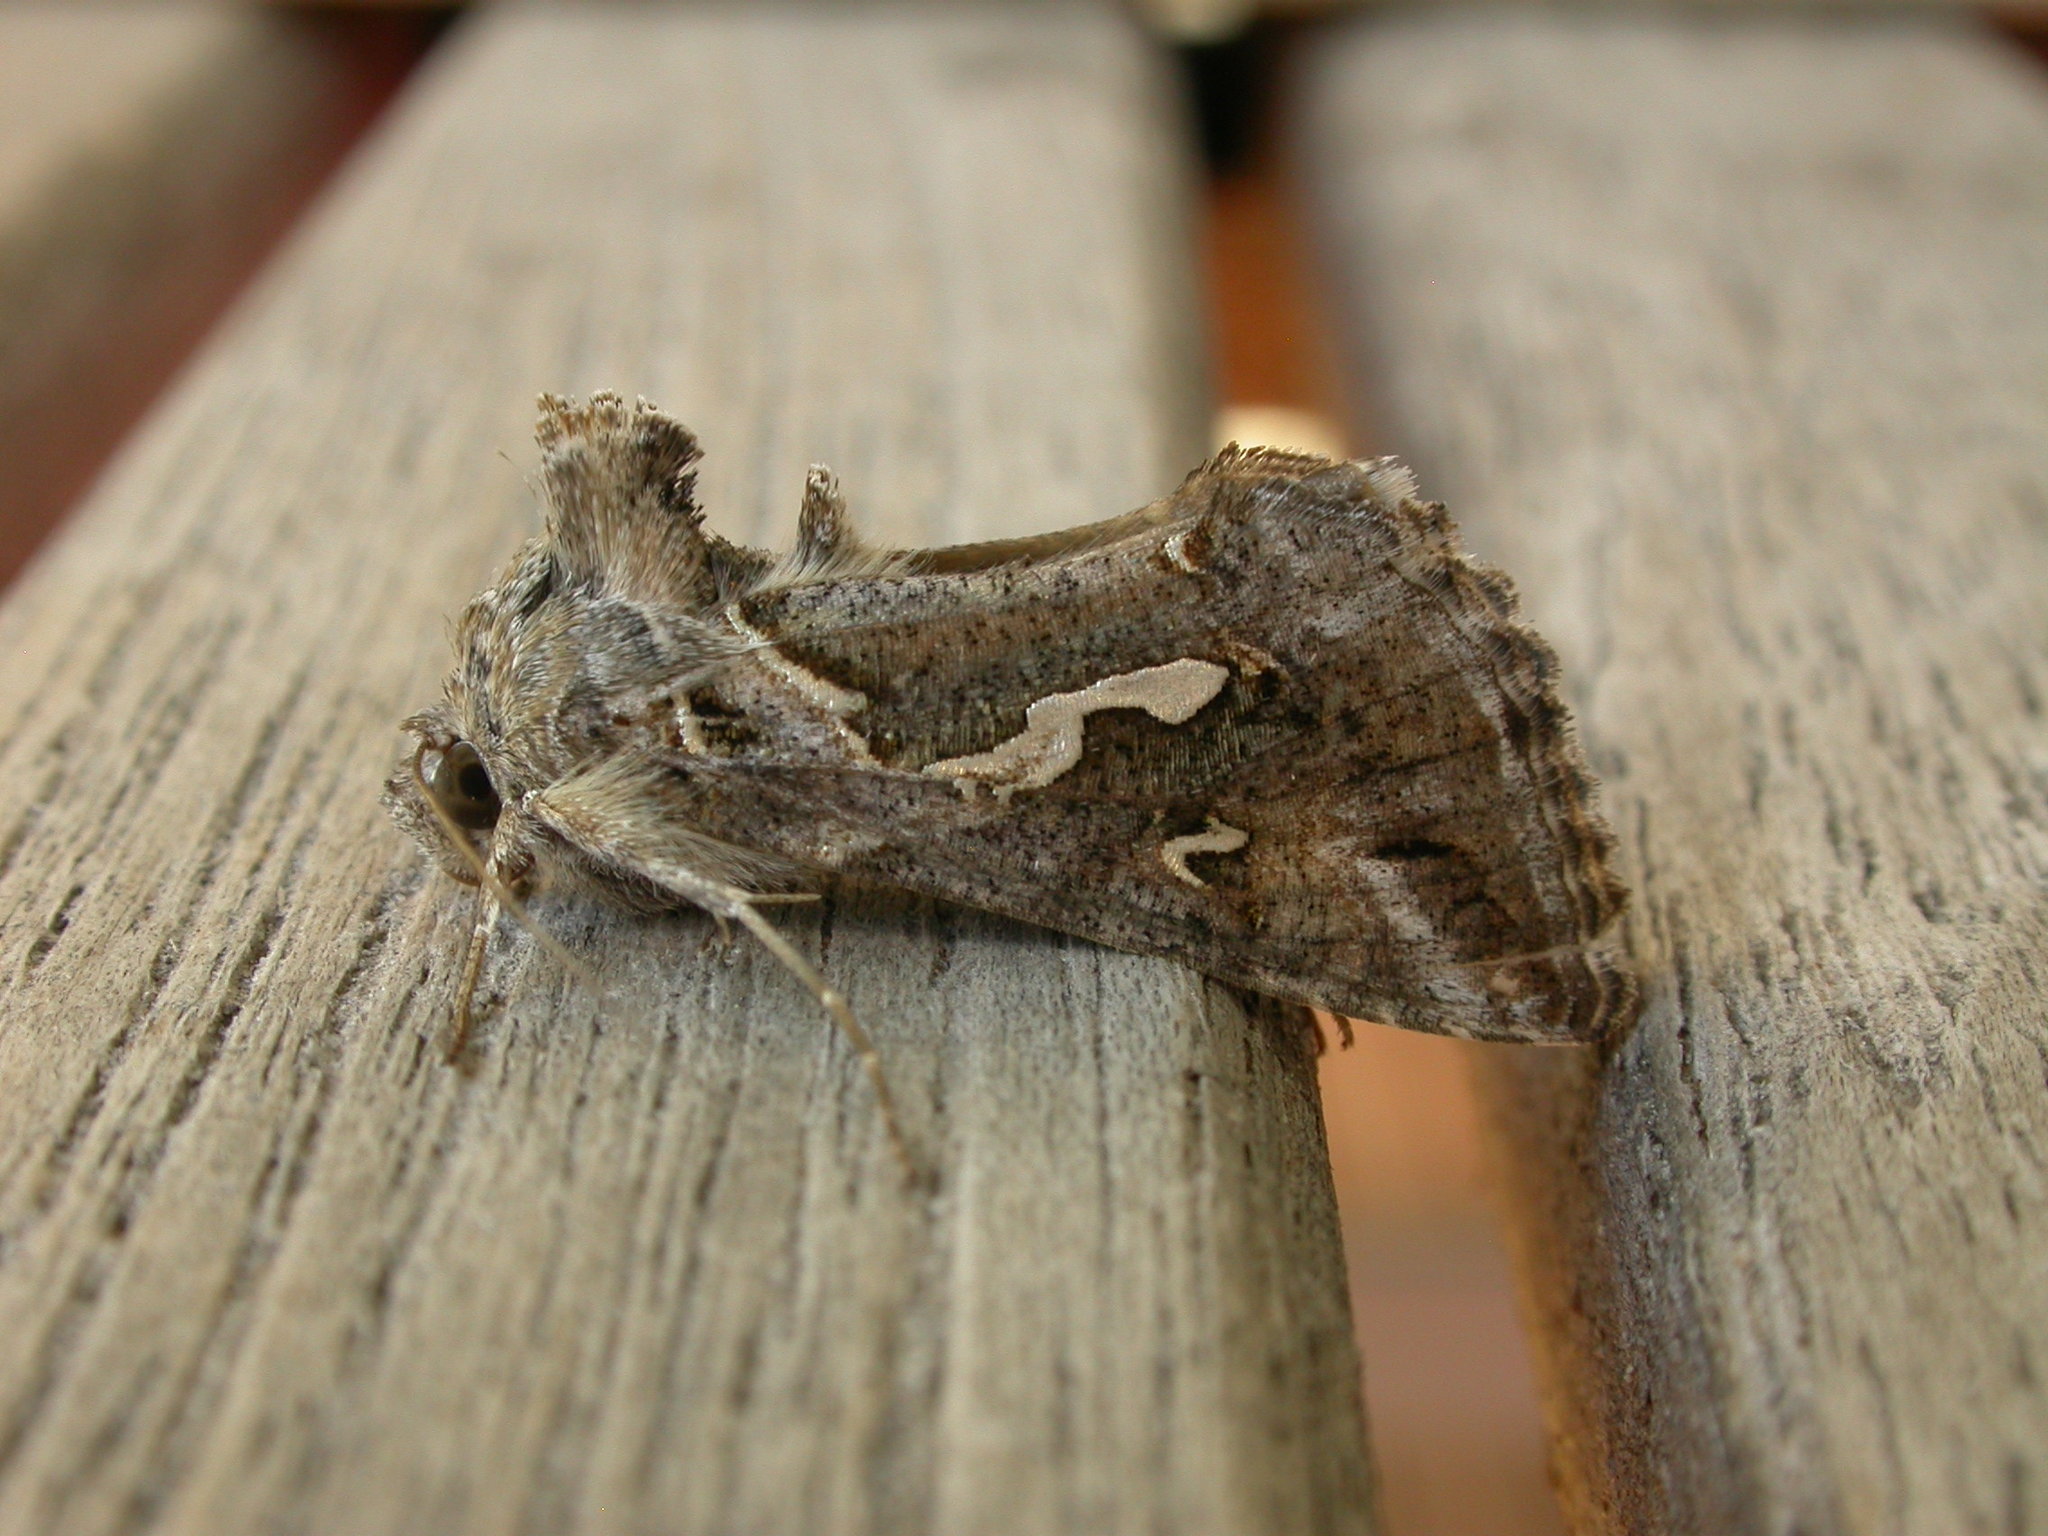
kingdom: Animalia
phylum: Arthropoda
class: Insecta
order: Lepidoptera
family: Noctuidae
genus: Chrysodeixis
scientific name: Chrysodeixis argentifera
